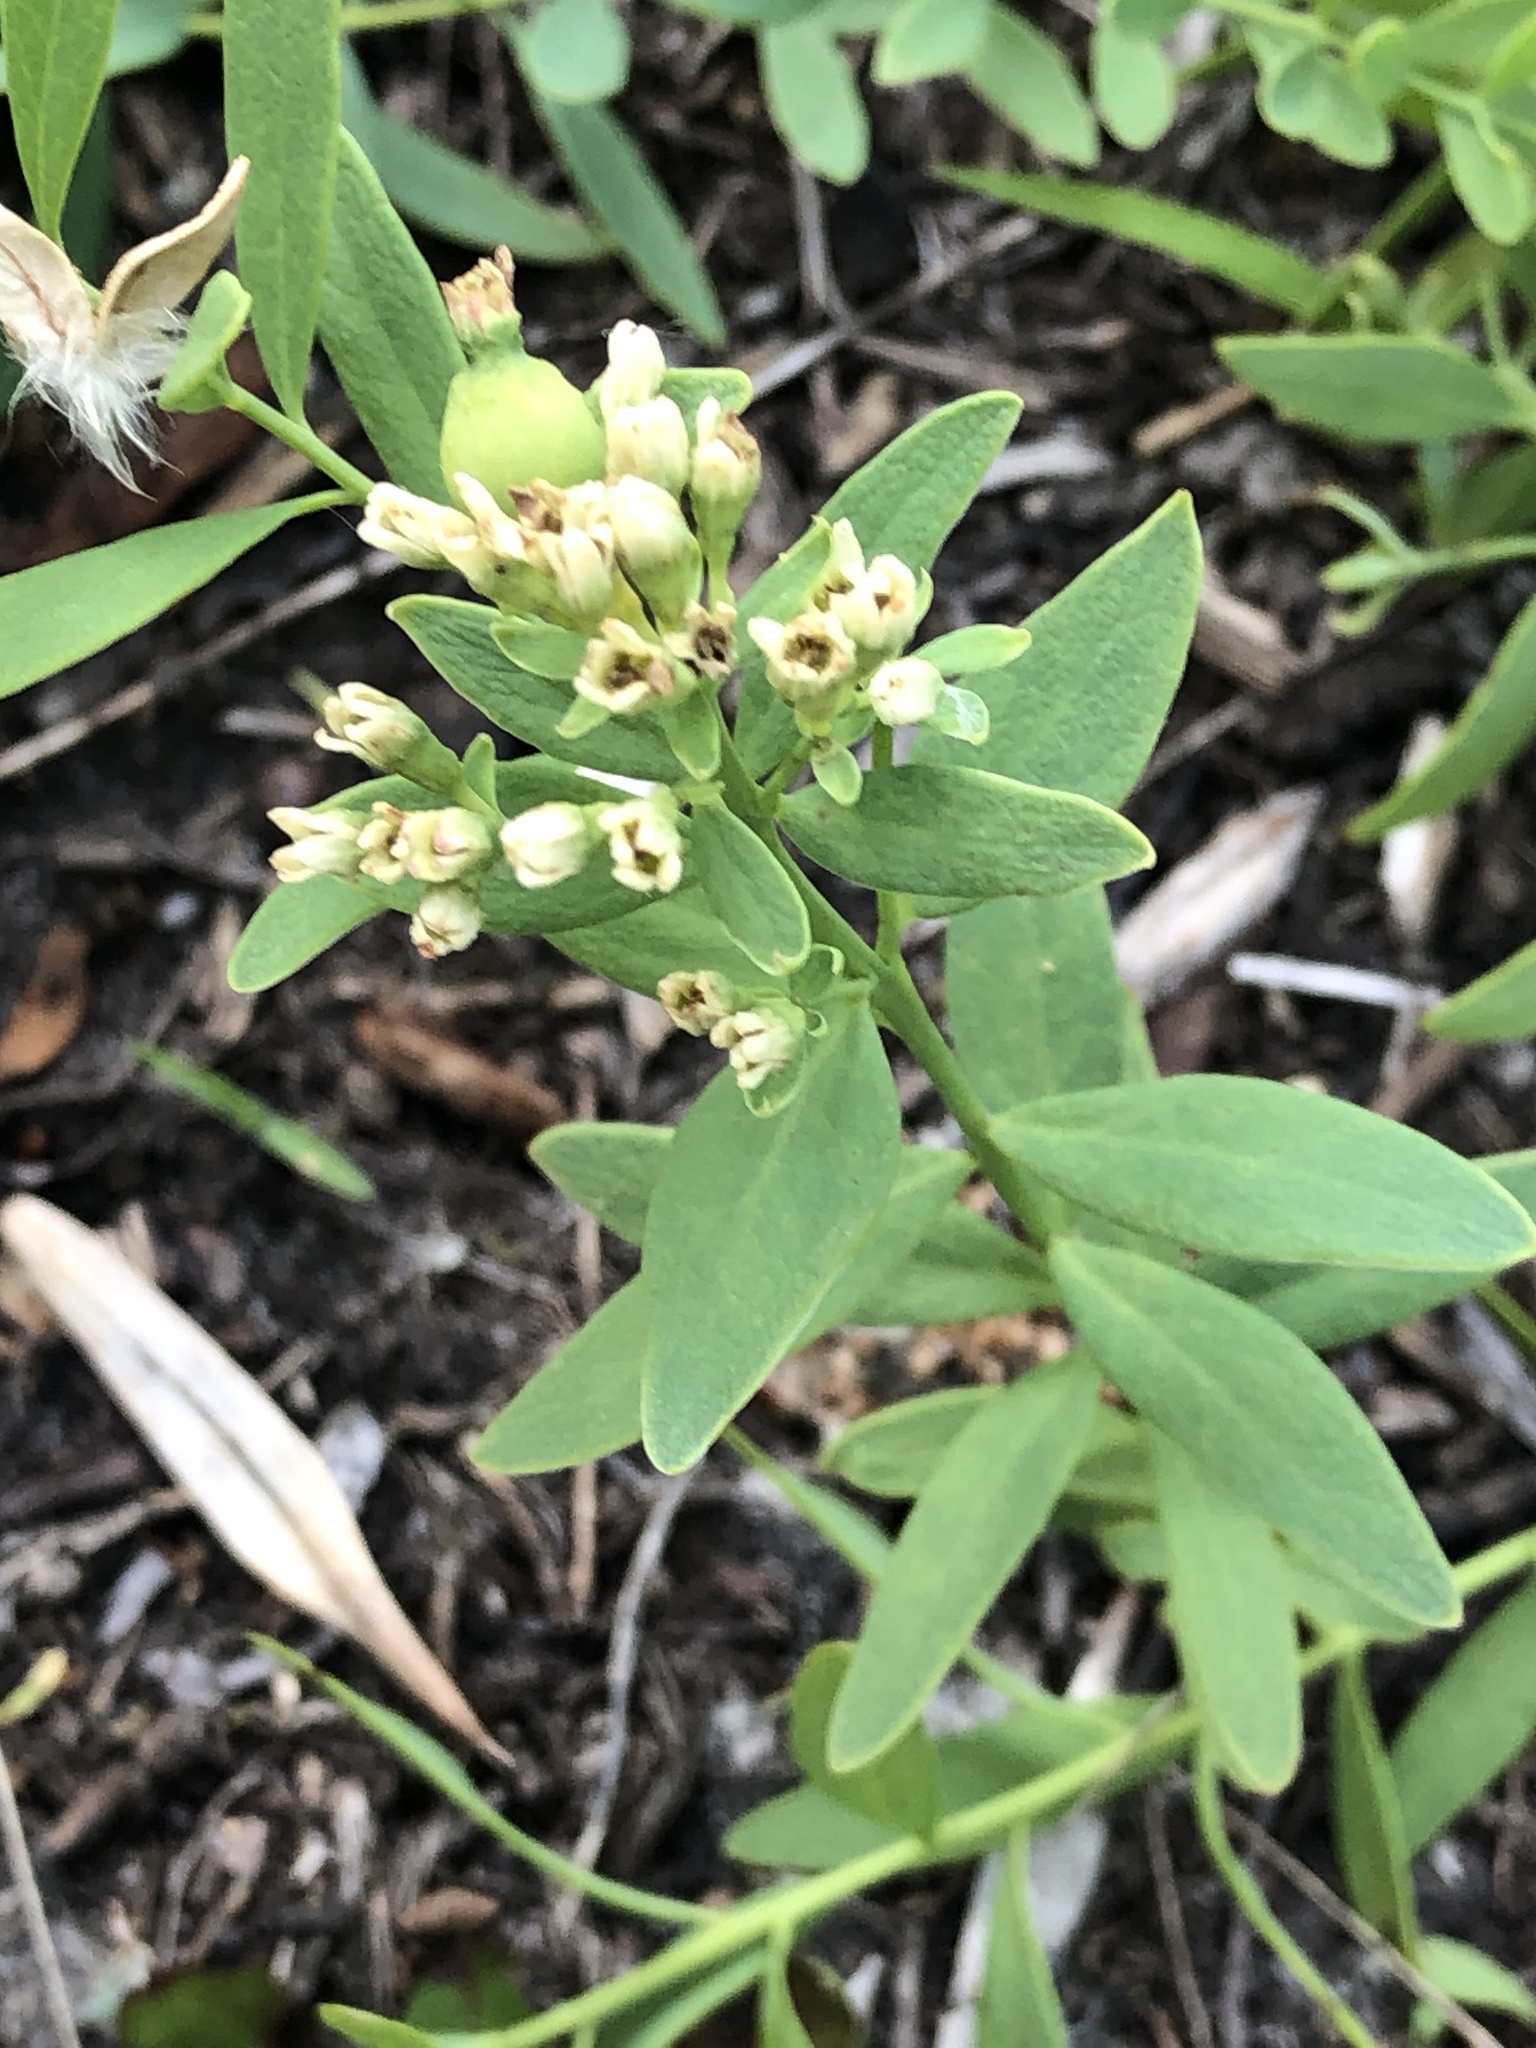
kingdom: Plantae
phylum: Tracheophyta
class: Magnoliopsida
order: Santalales
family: Comandraceae
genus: Comandra
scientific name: Comandra umbellata
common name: Bastard toadflax
